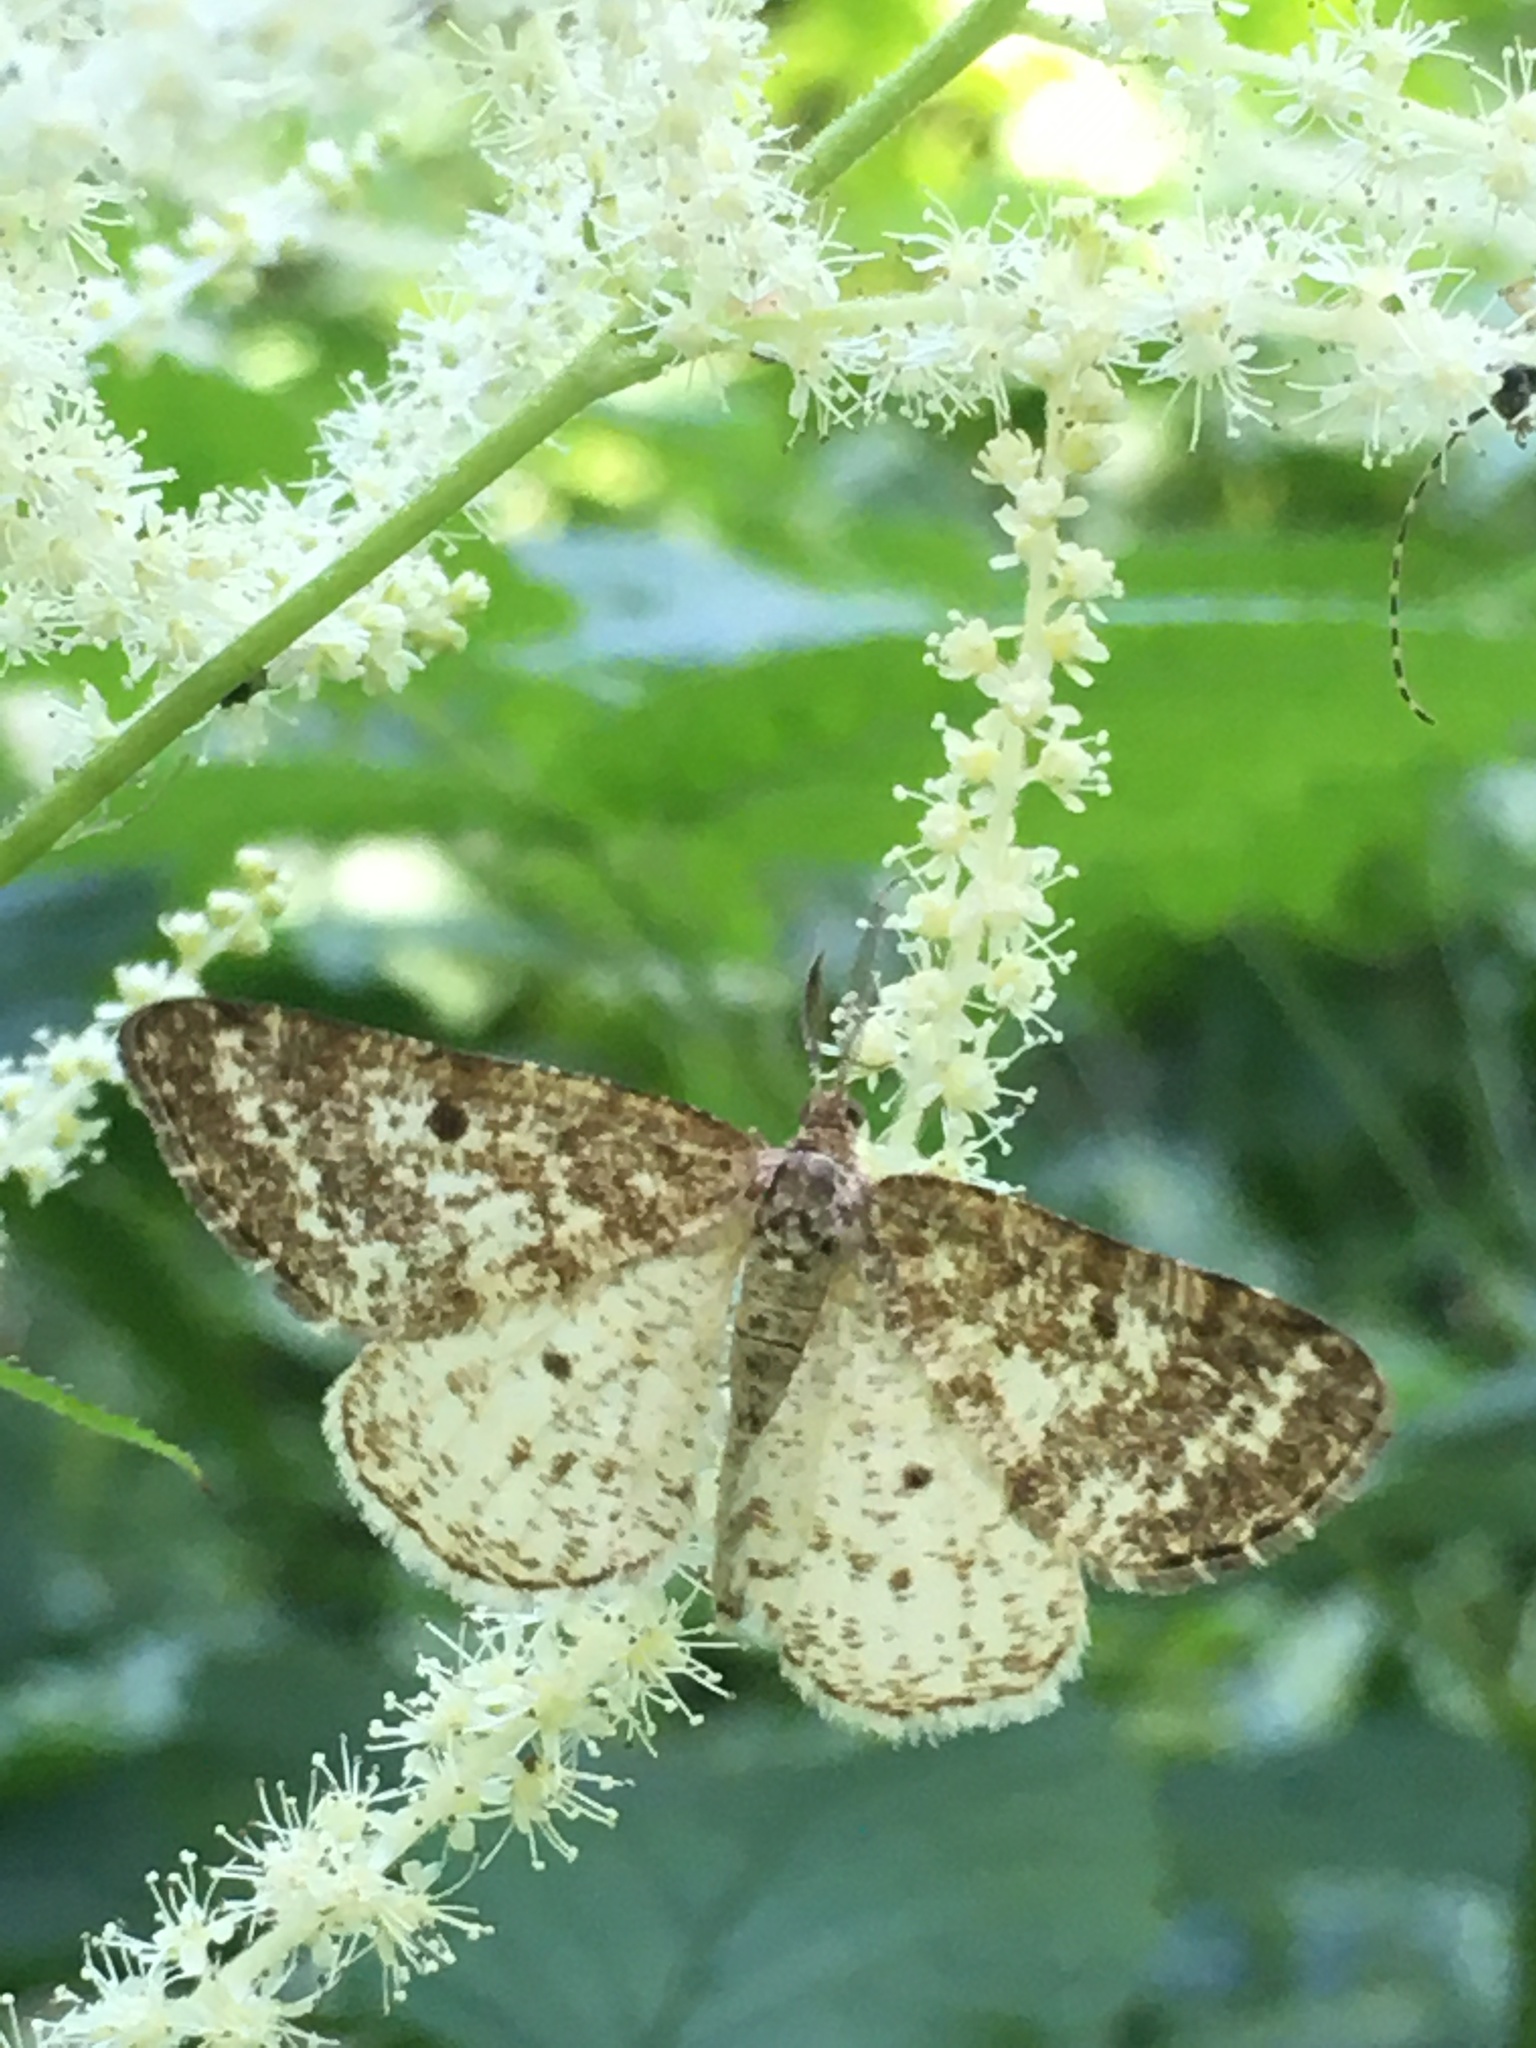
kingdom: Animalia
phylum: Arthropoda
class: Insecta
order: Lepidoptera
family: Geometridae
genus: Eufidonia
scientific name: Eufidonia notataria
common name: Powder moth
